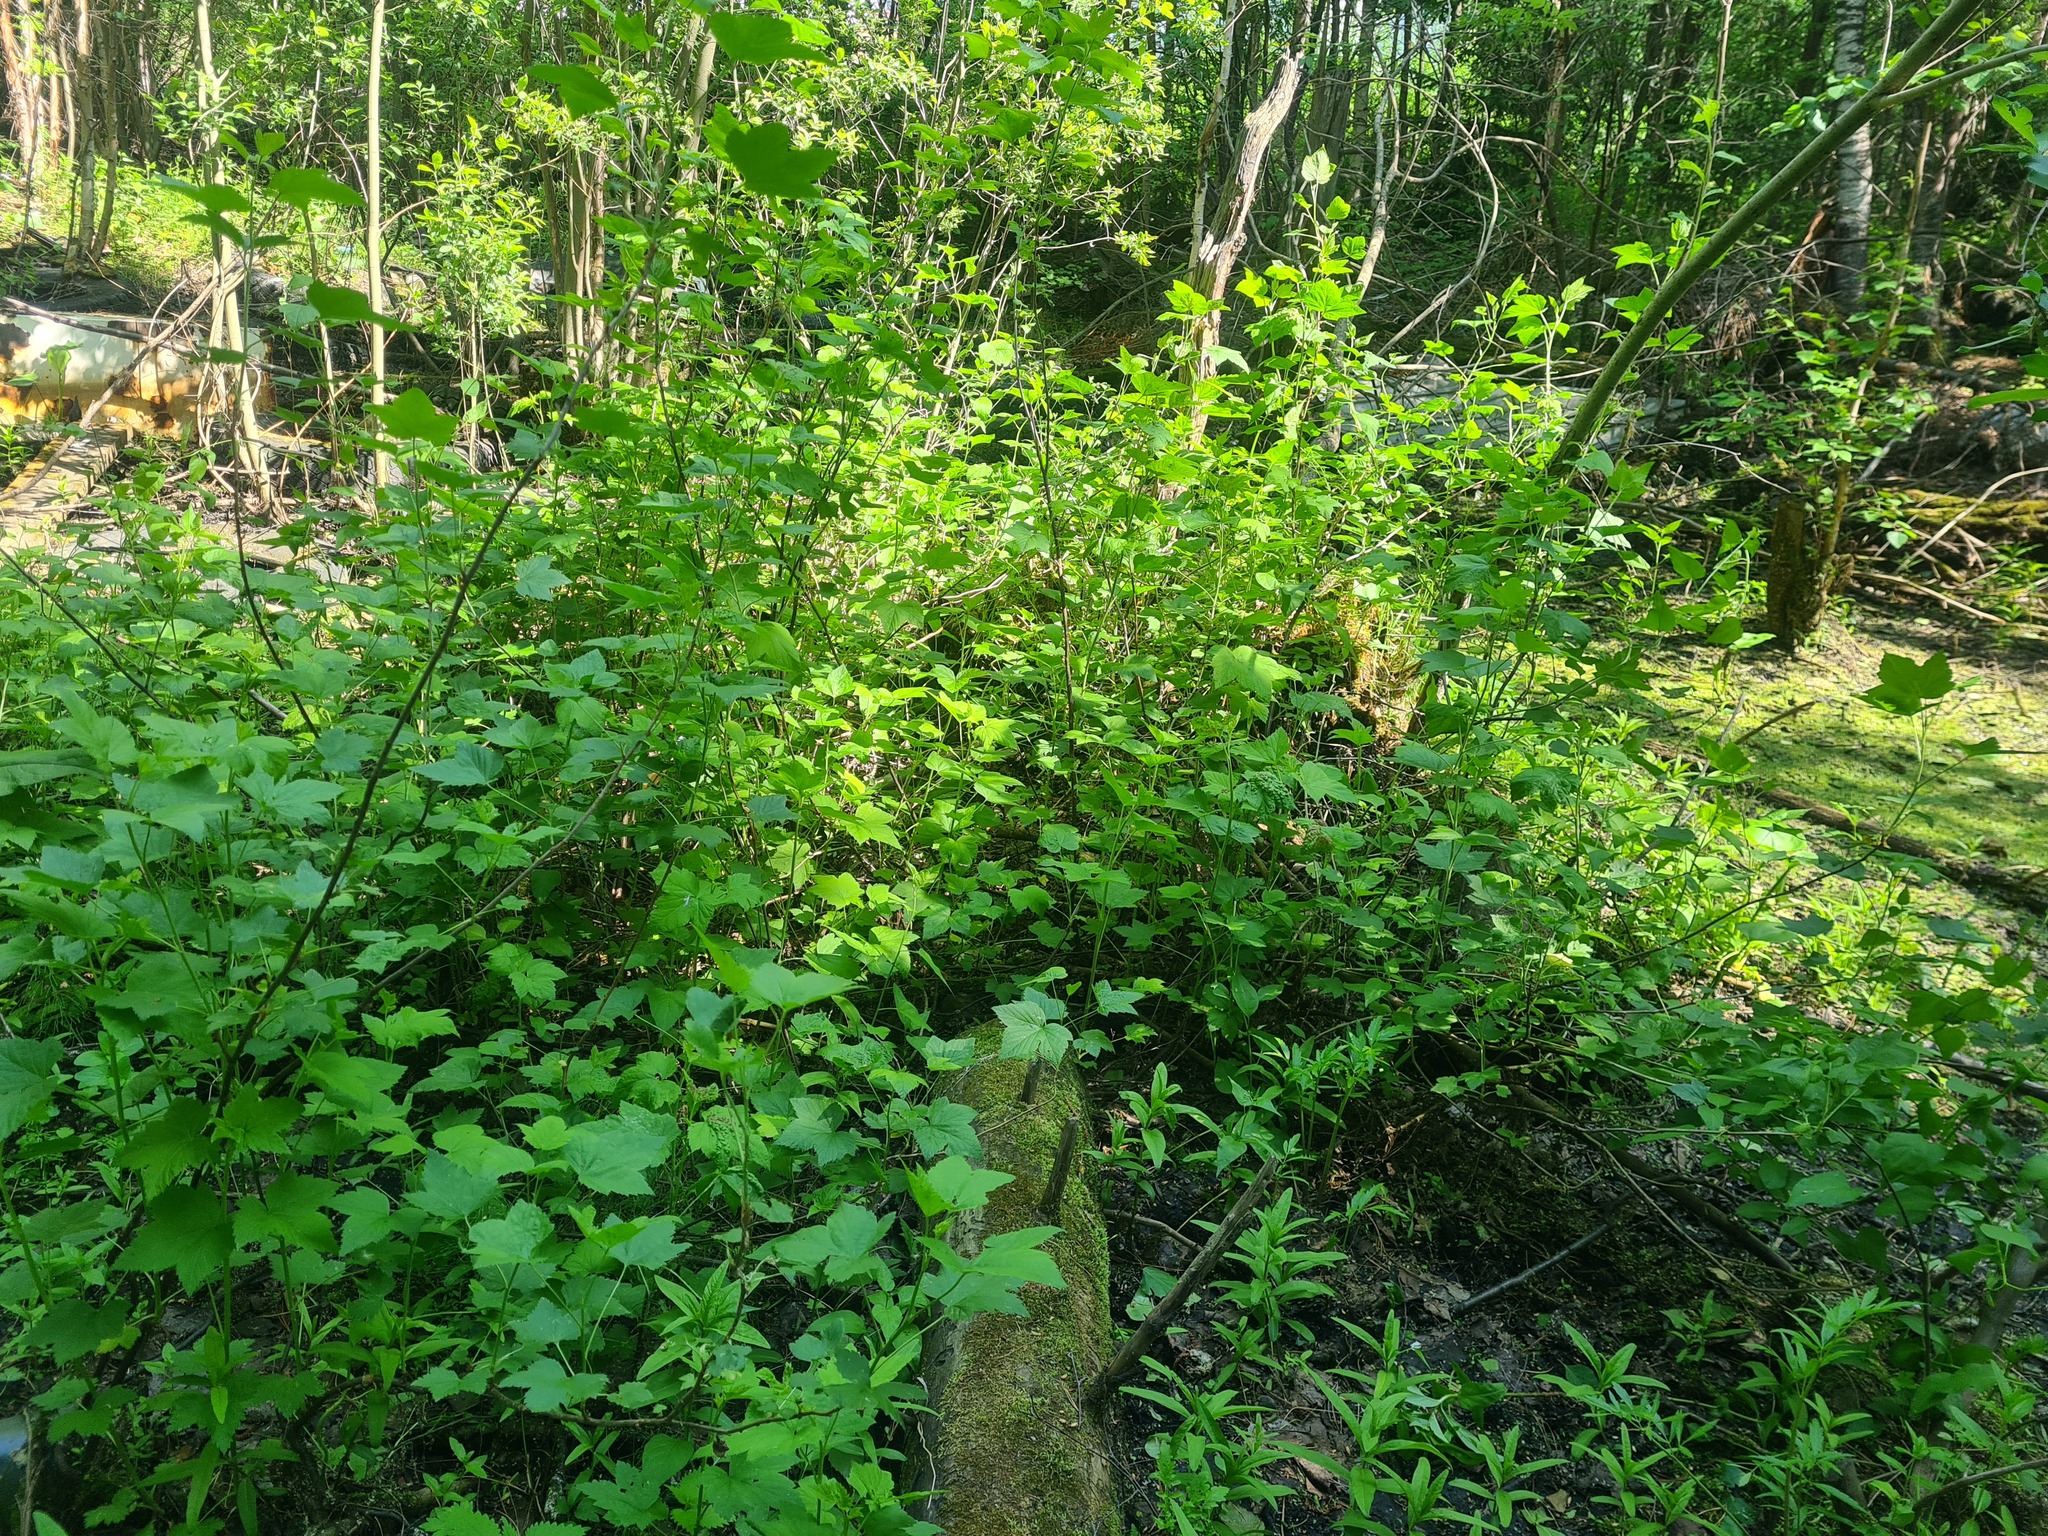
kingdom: Plantae
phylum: Tracheophyta
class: Magnoliopsida
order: Saxifragales
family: Grossulariaceae
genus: Ribes
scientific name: Ribes nigrum
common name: Black currant
